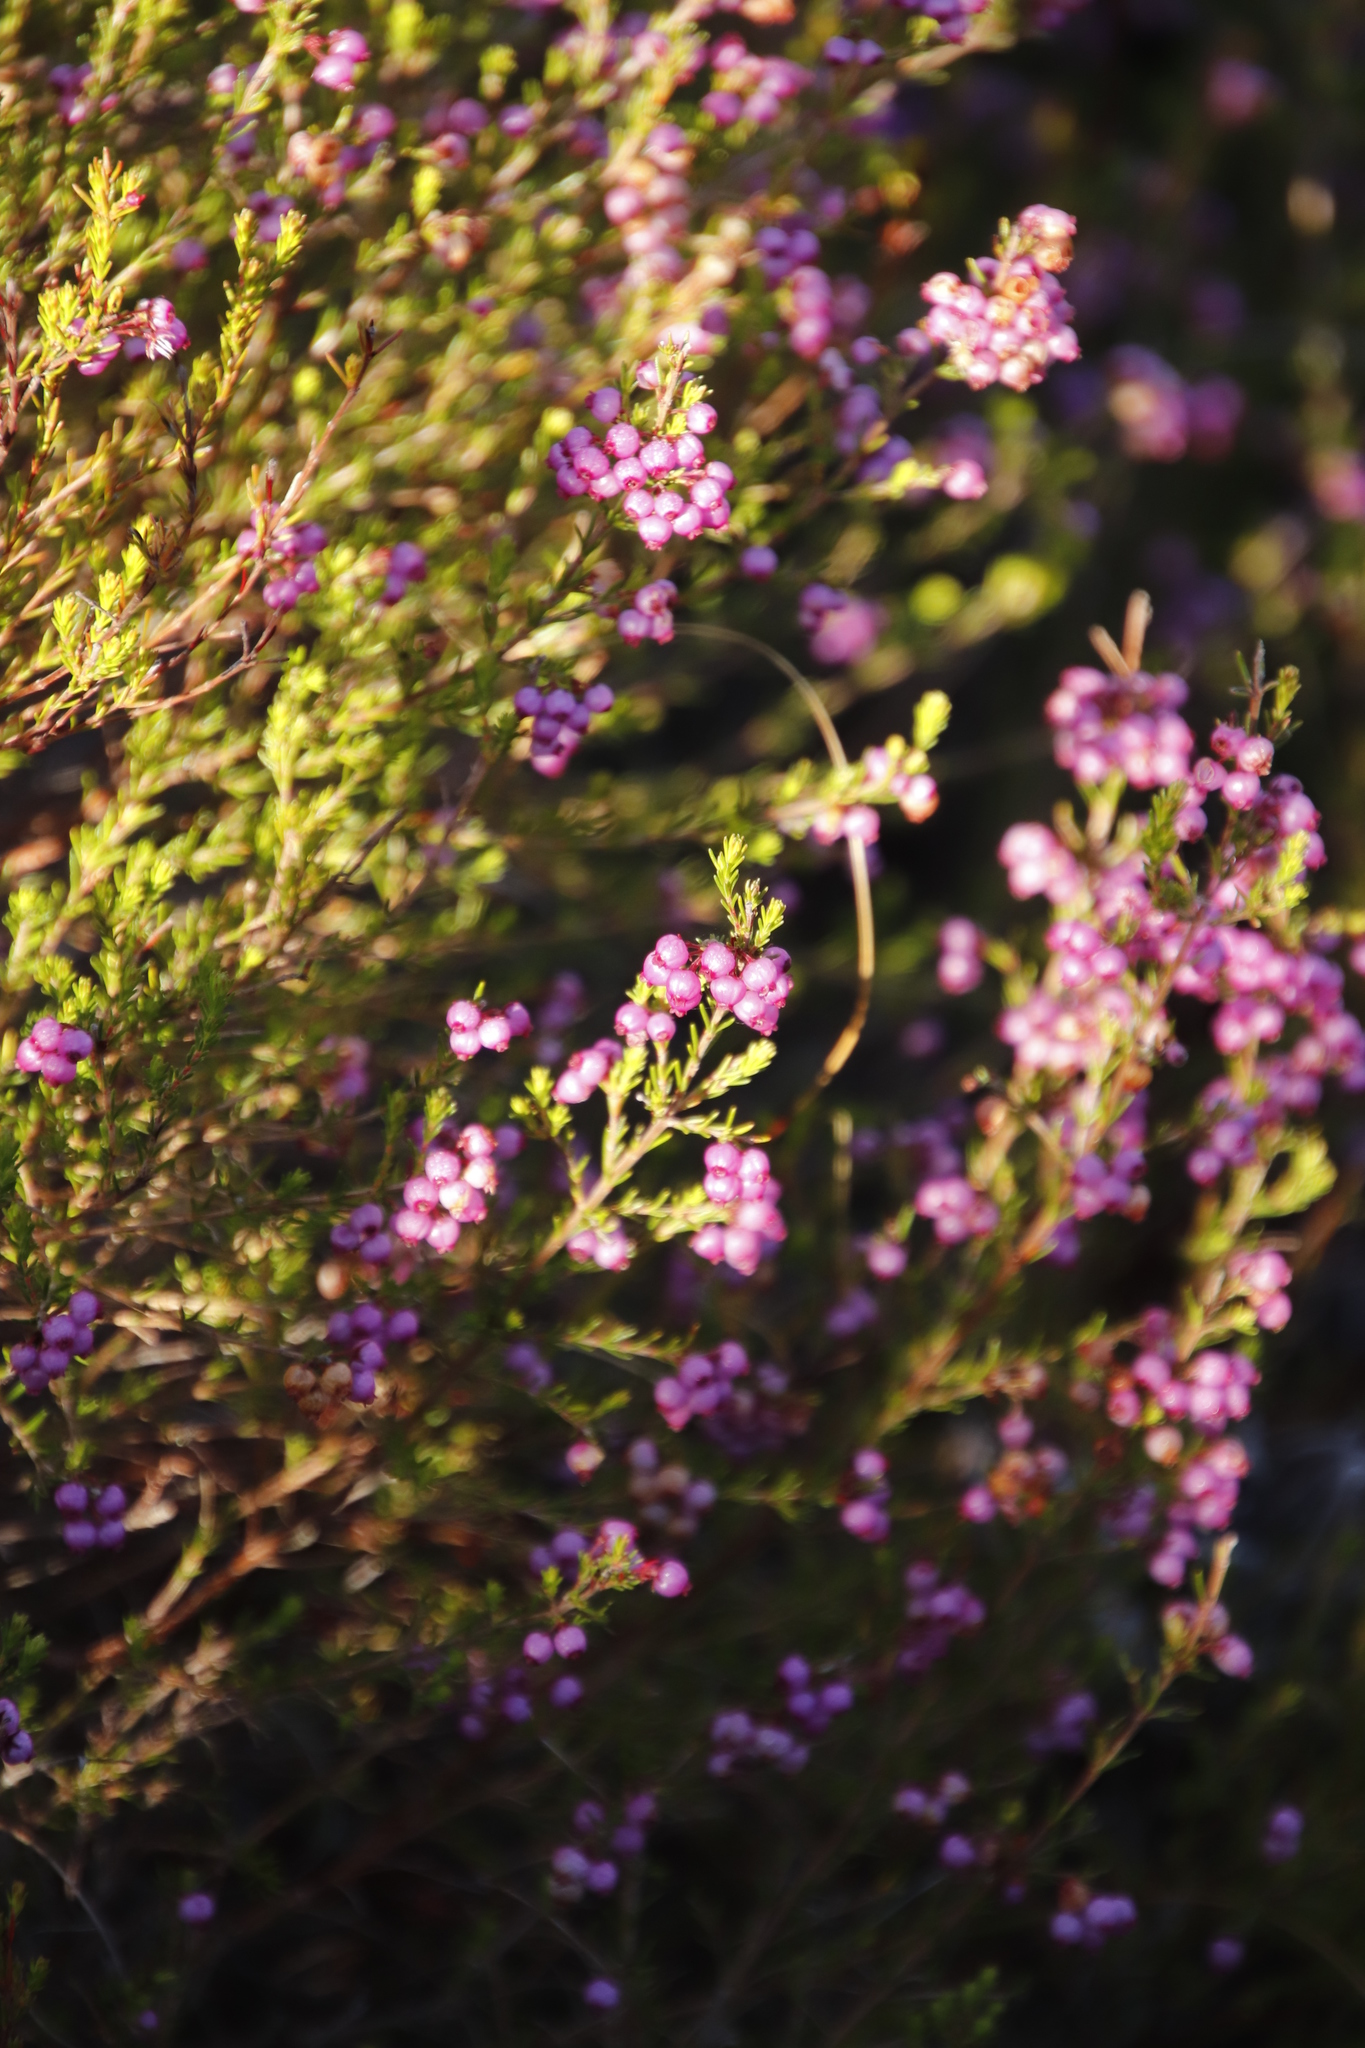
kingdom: Plantae
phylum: Tracheophyta
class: Magnoliopsida
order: Ericales
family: Ericaceae
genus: Erica
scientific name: Erica multumbellifera
